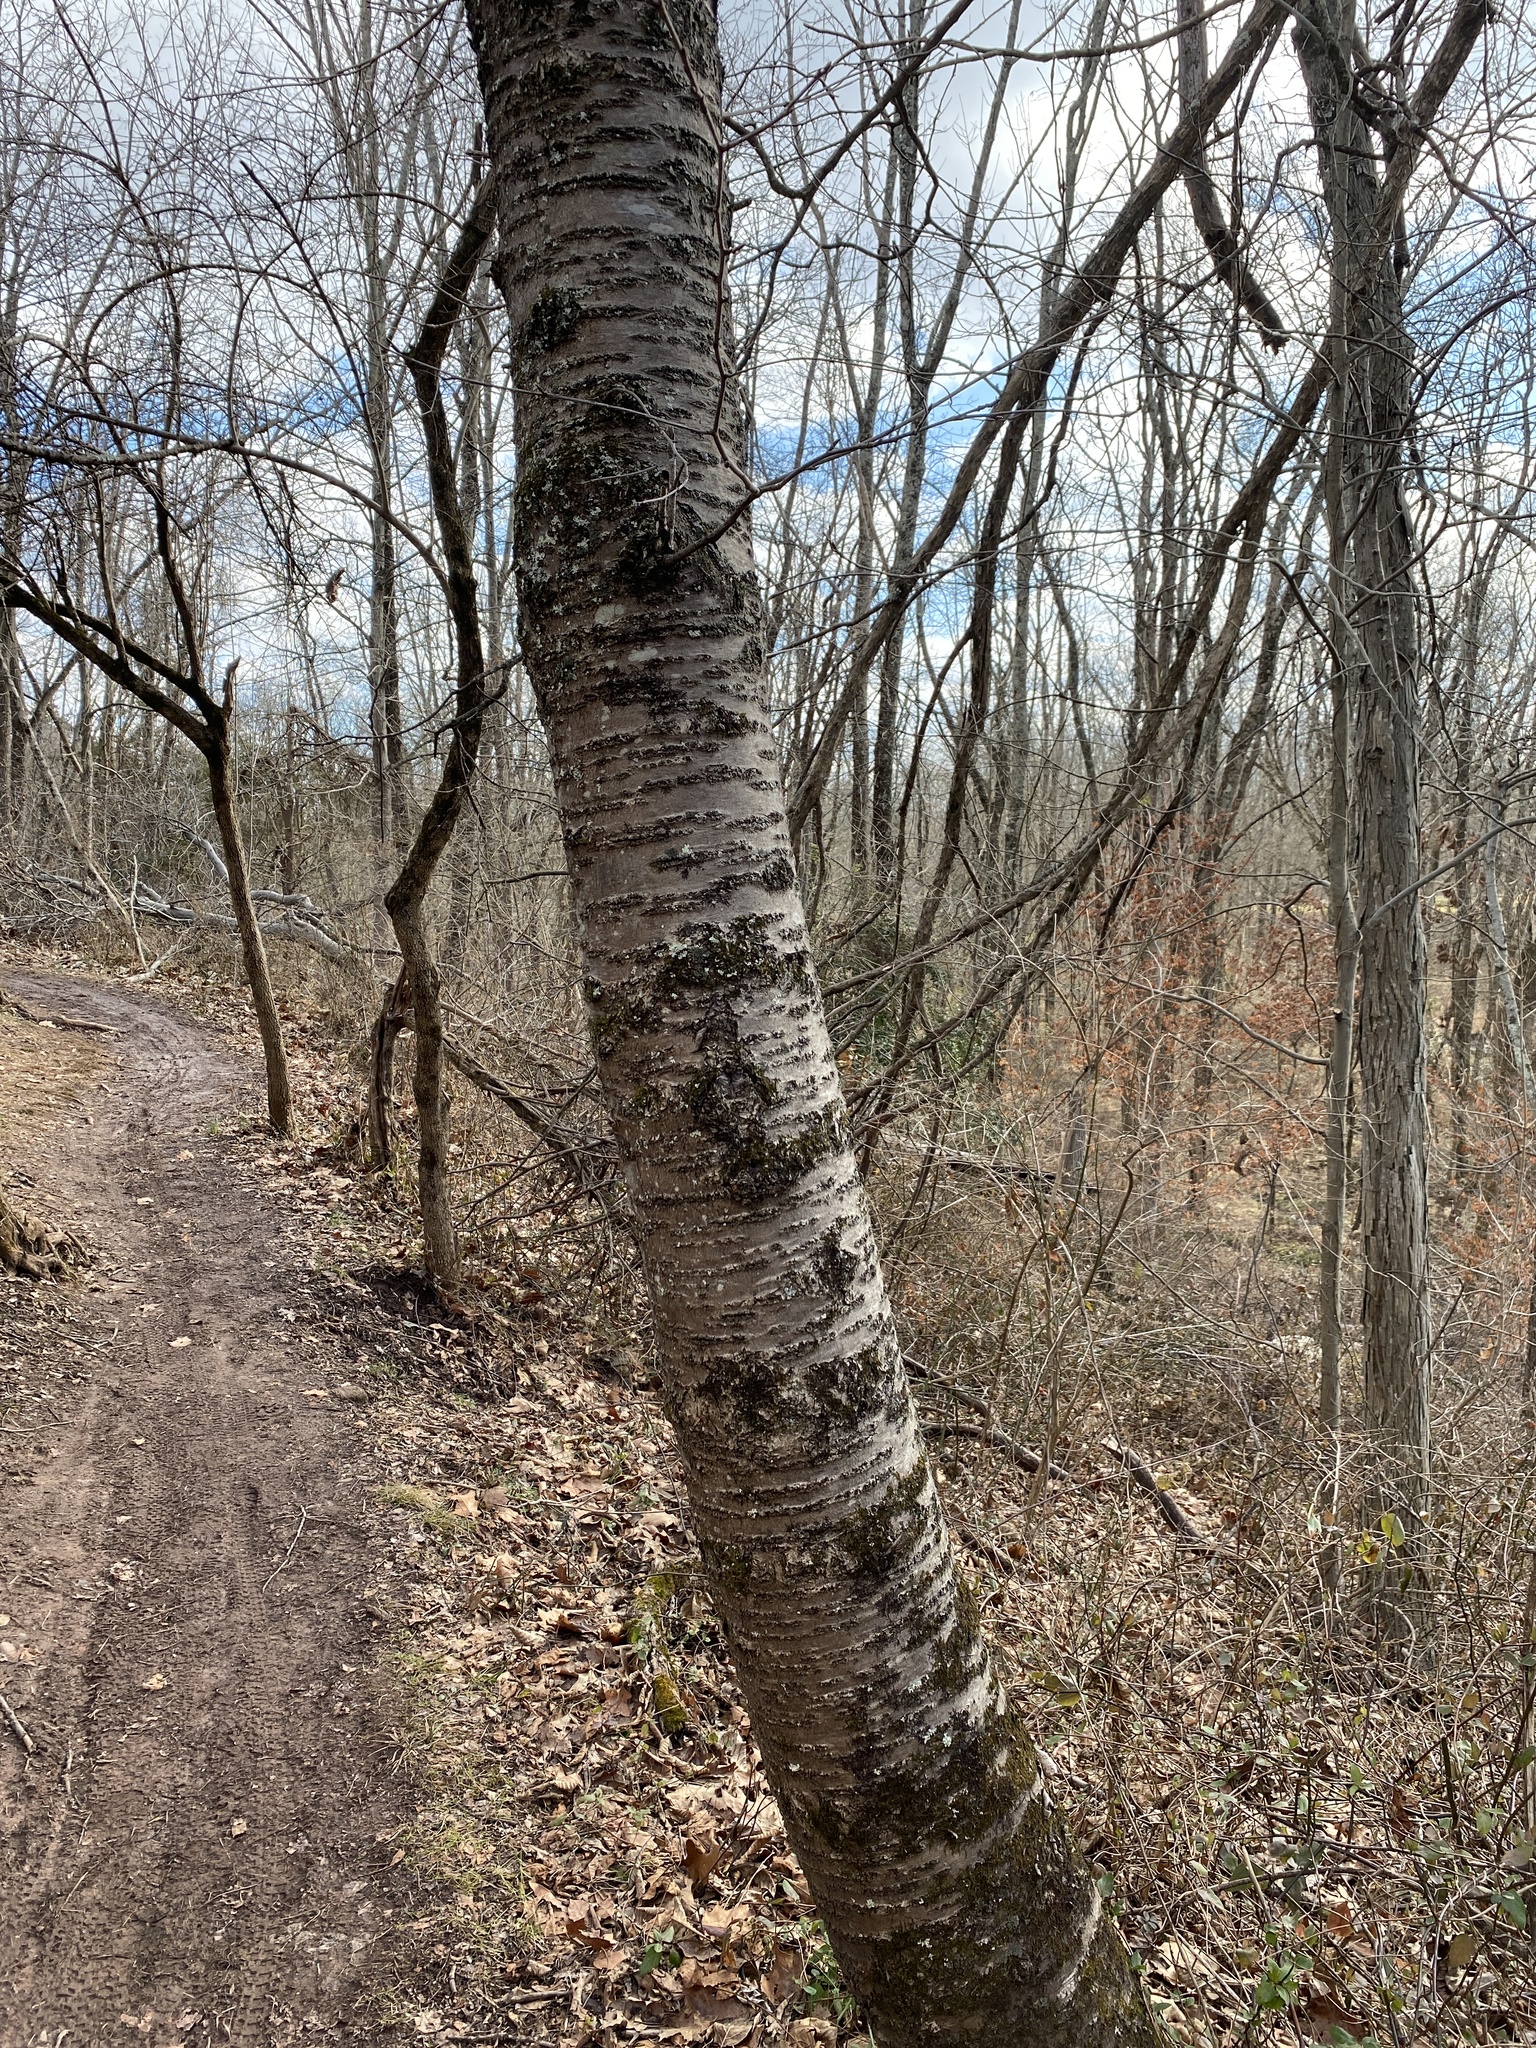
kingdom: Plantae
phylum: Tracheophyta
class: Magnoliopsida
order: Rosales
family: Rosaceae
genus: Prunus
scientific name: Prunus avium
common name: Sweet cherry
